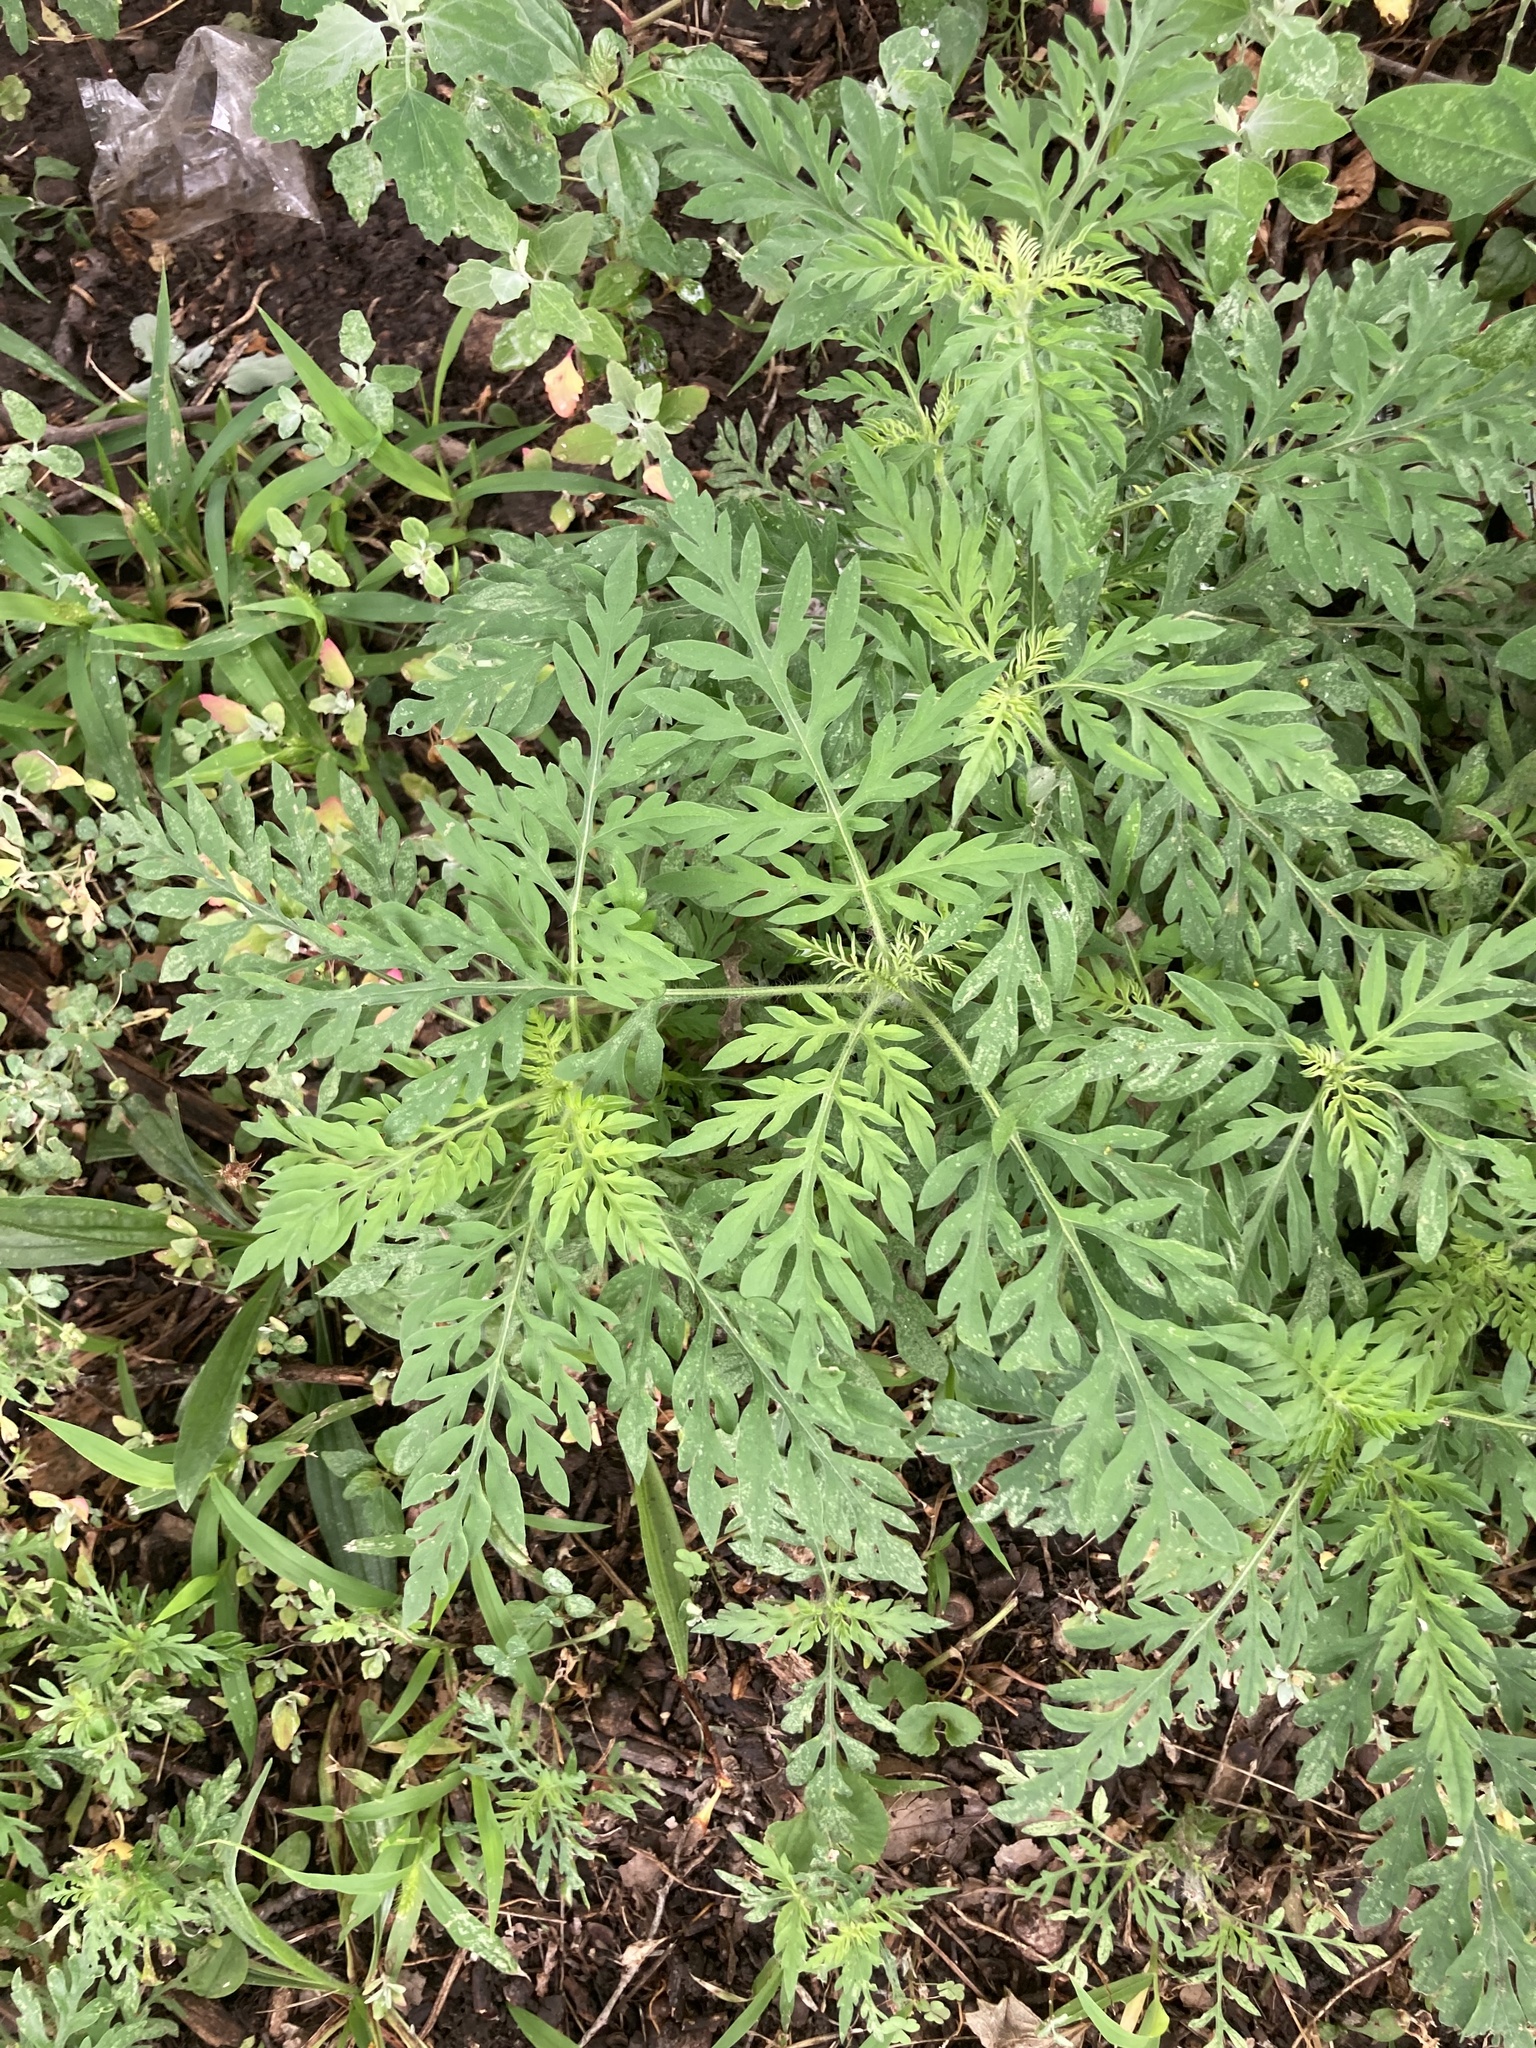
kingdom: Plantae
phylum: Tracheophyta
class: Magnoliopsida
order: Asterales
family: Asteraceae
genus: Ambrosia
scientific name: Ambrosia artemisiifolia
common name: Annual ragweed
